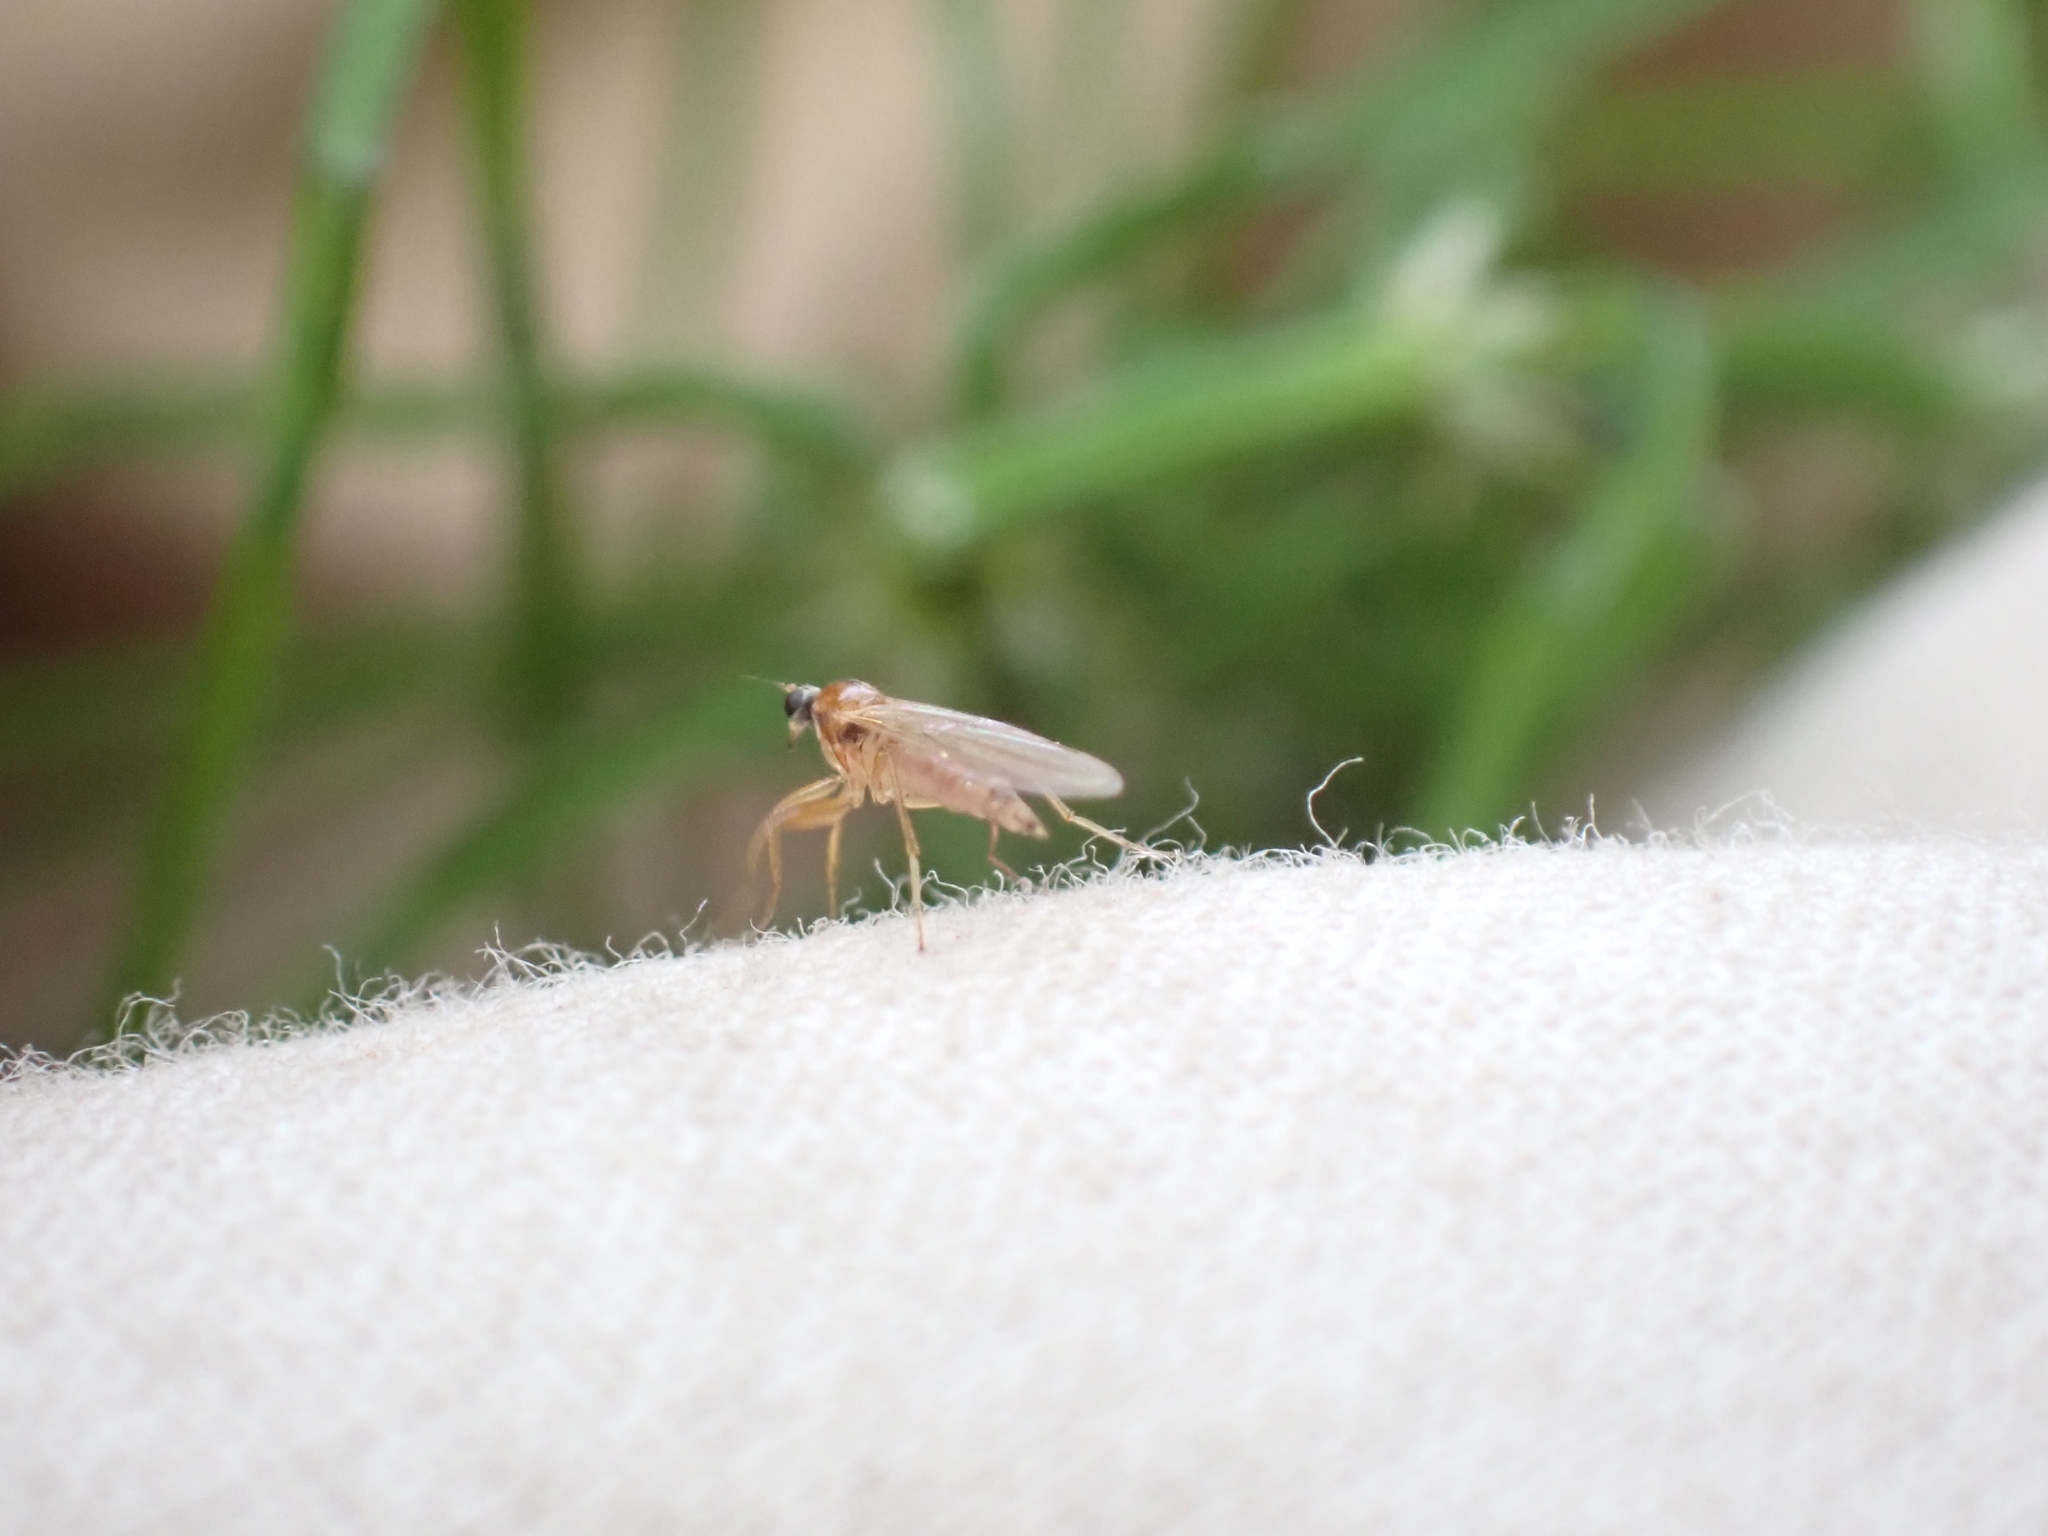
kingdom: Animalia
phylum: Arthropoda
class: Insecta
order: Diptera
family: Hybotidae
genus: Platypalpus
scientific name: Platypalpus vittiger
